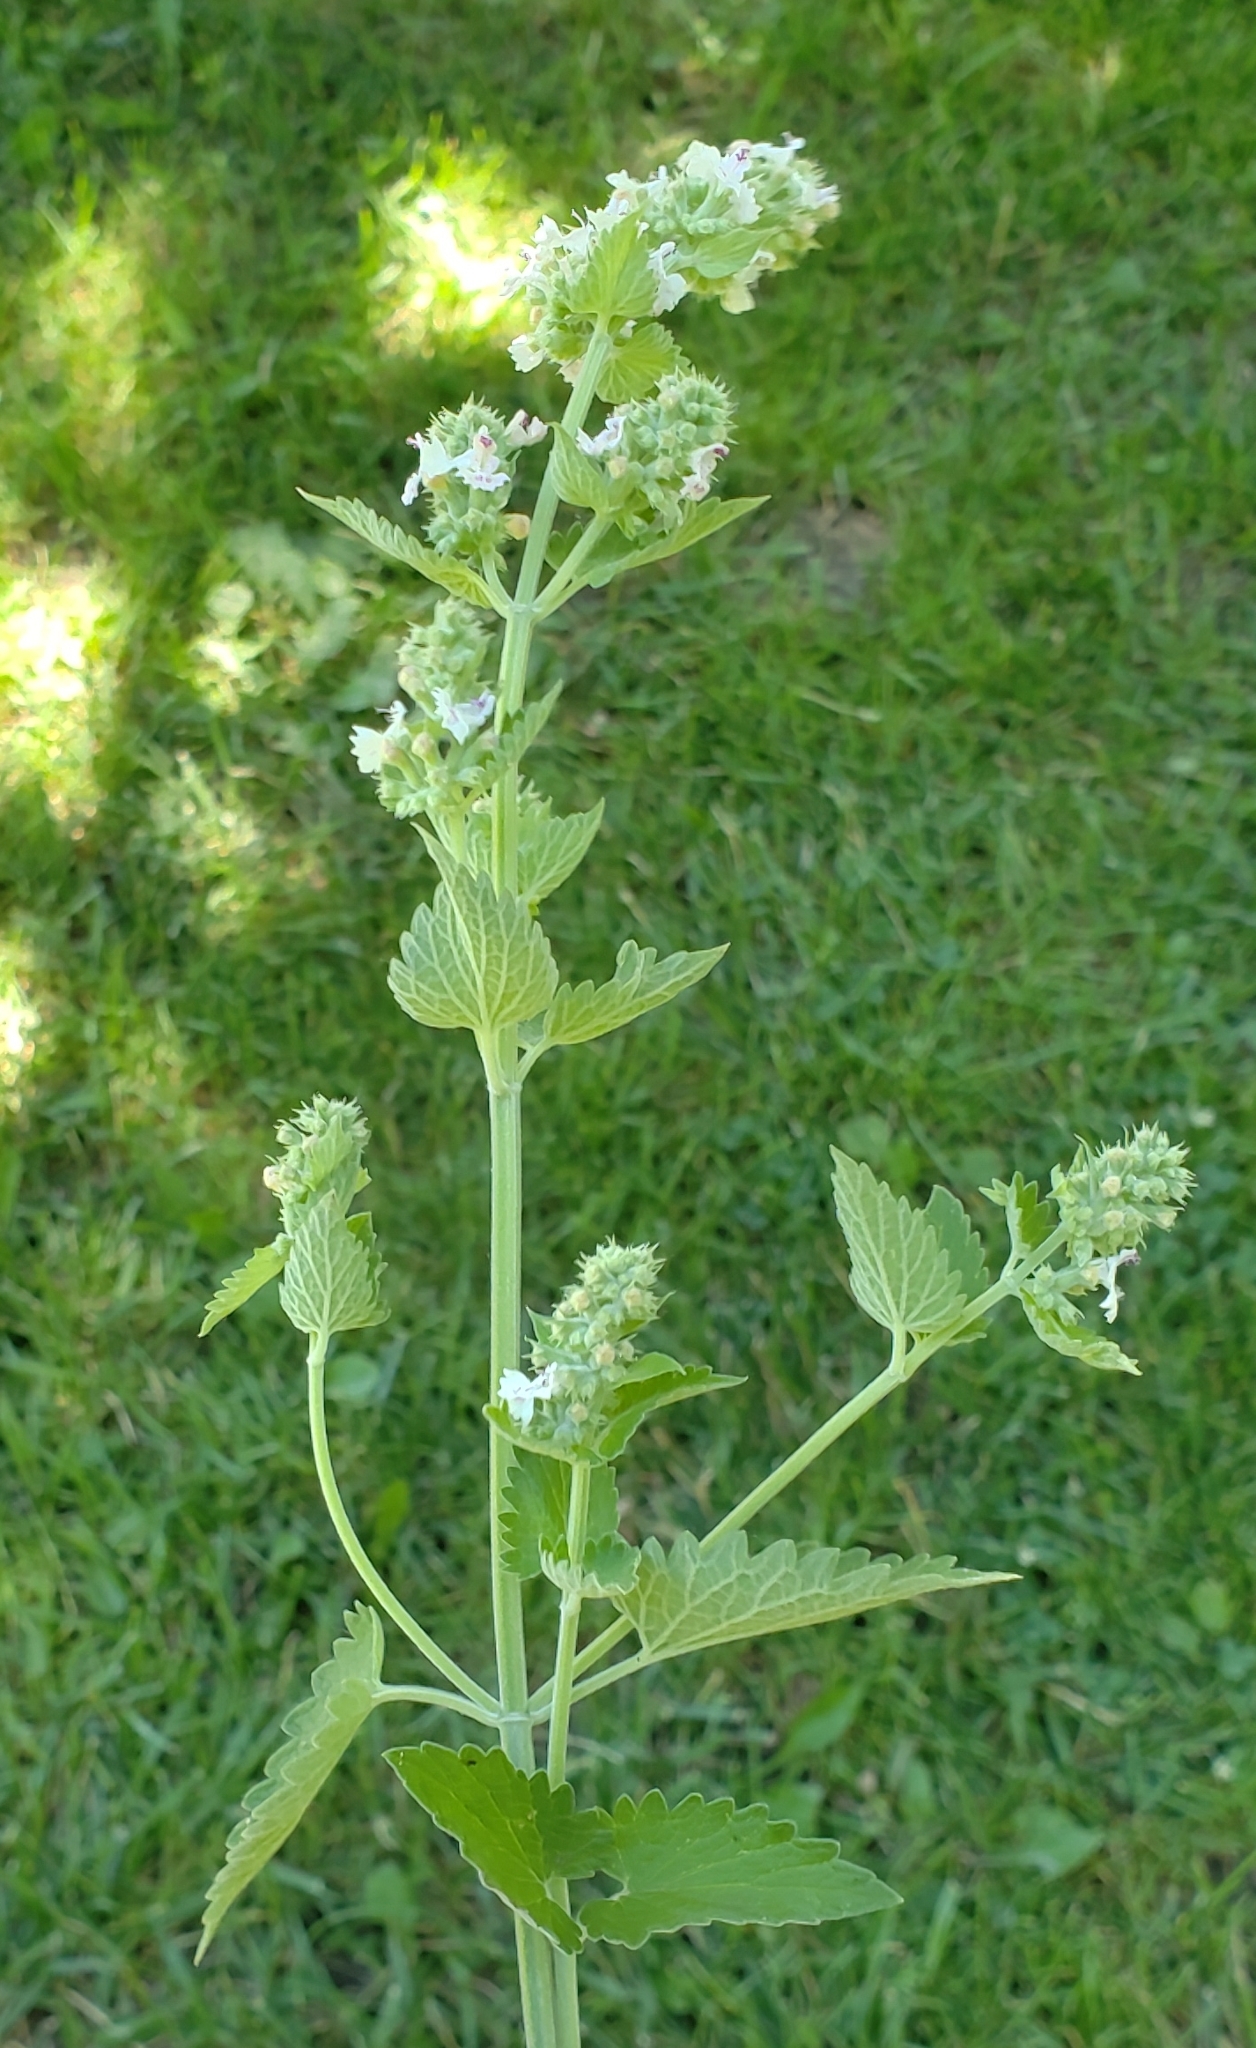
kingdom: Plantae
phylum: Tracheophyta
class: Magnoliopsida
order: Lamiales
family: Lamiaceae
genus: Nepeta
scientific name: Nepeta cataria
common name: Catnip
